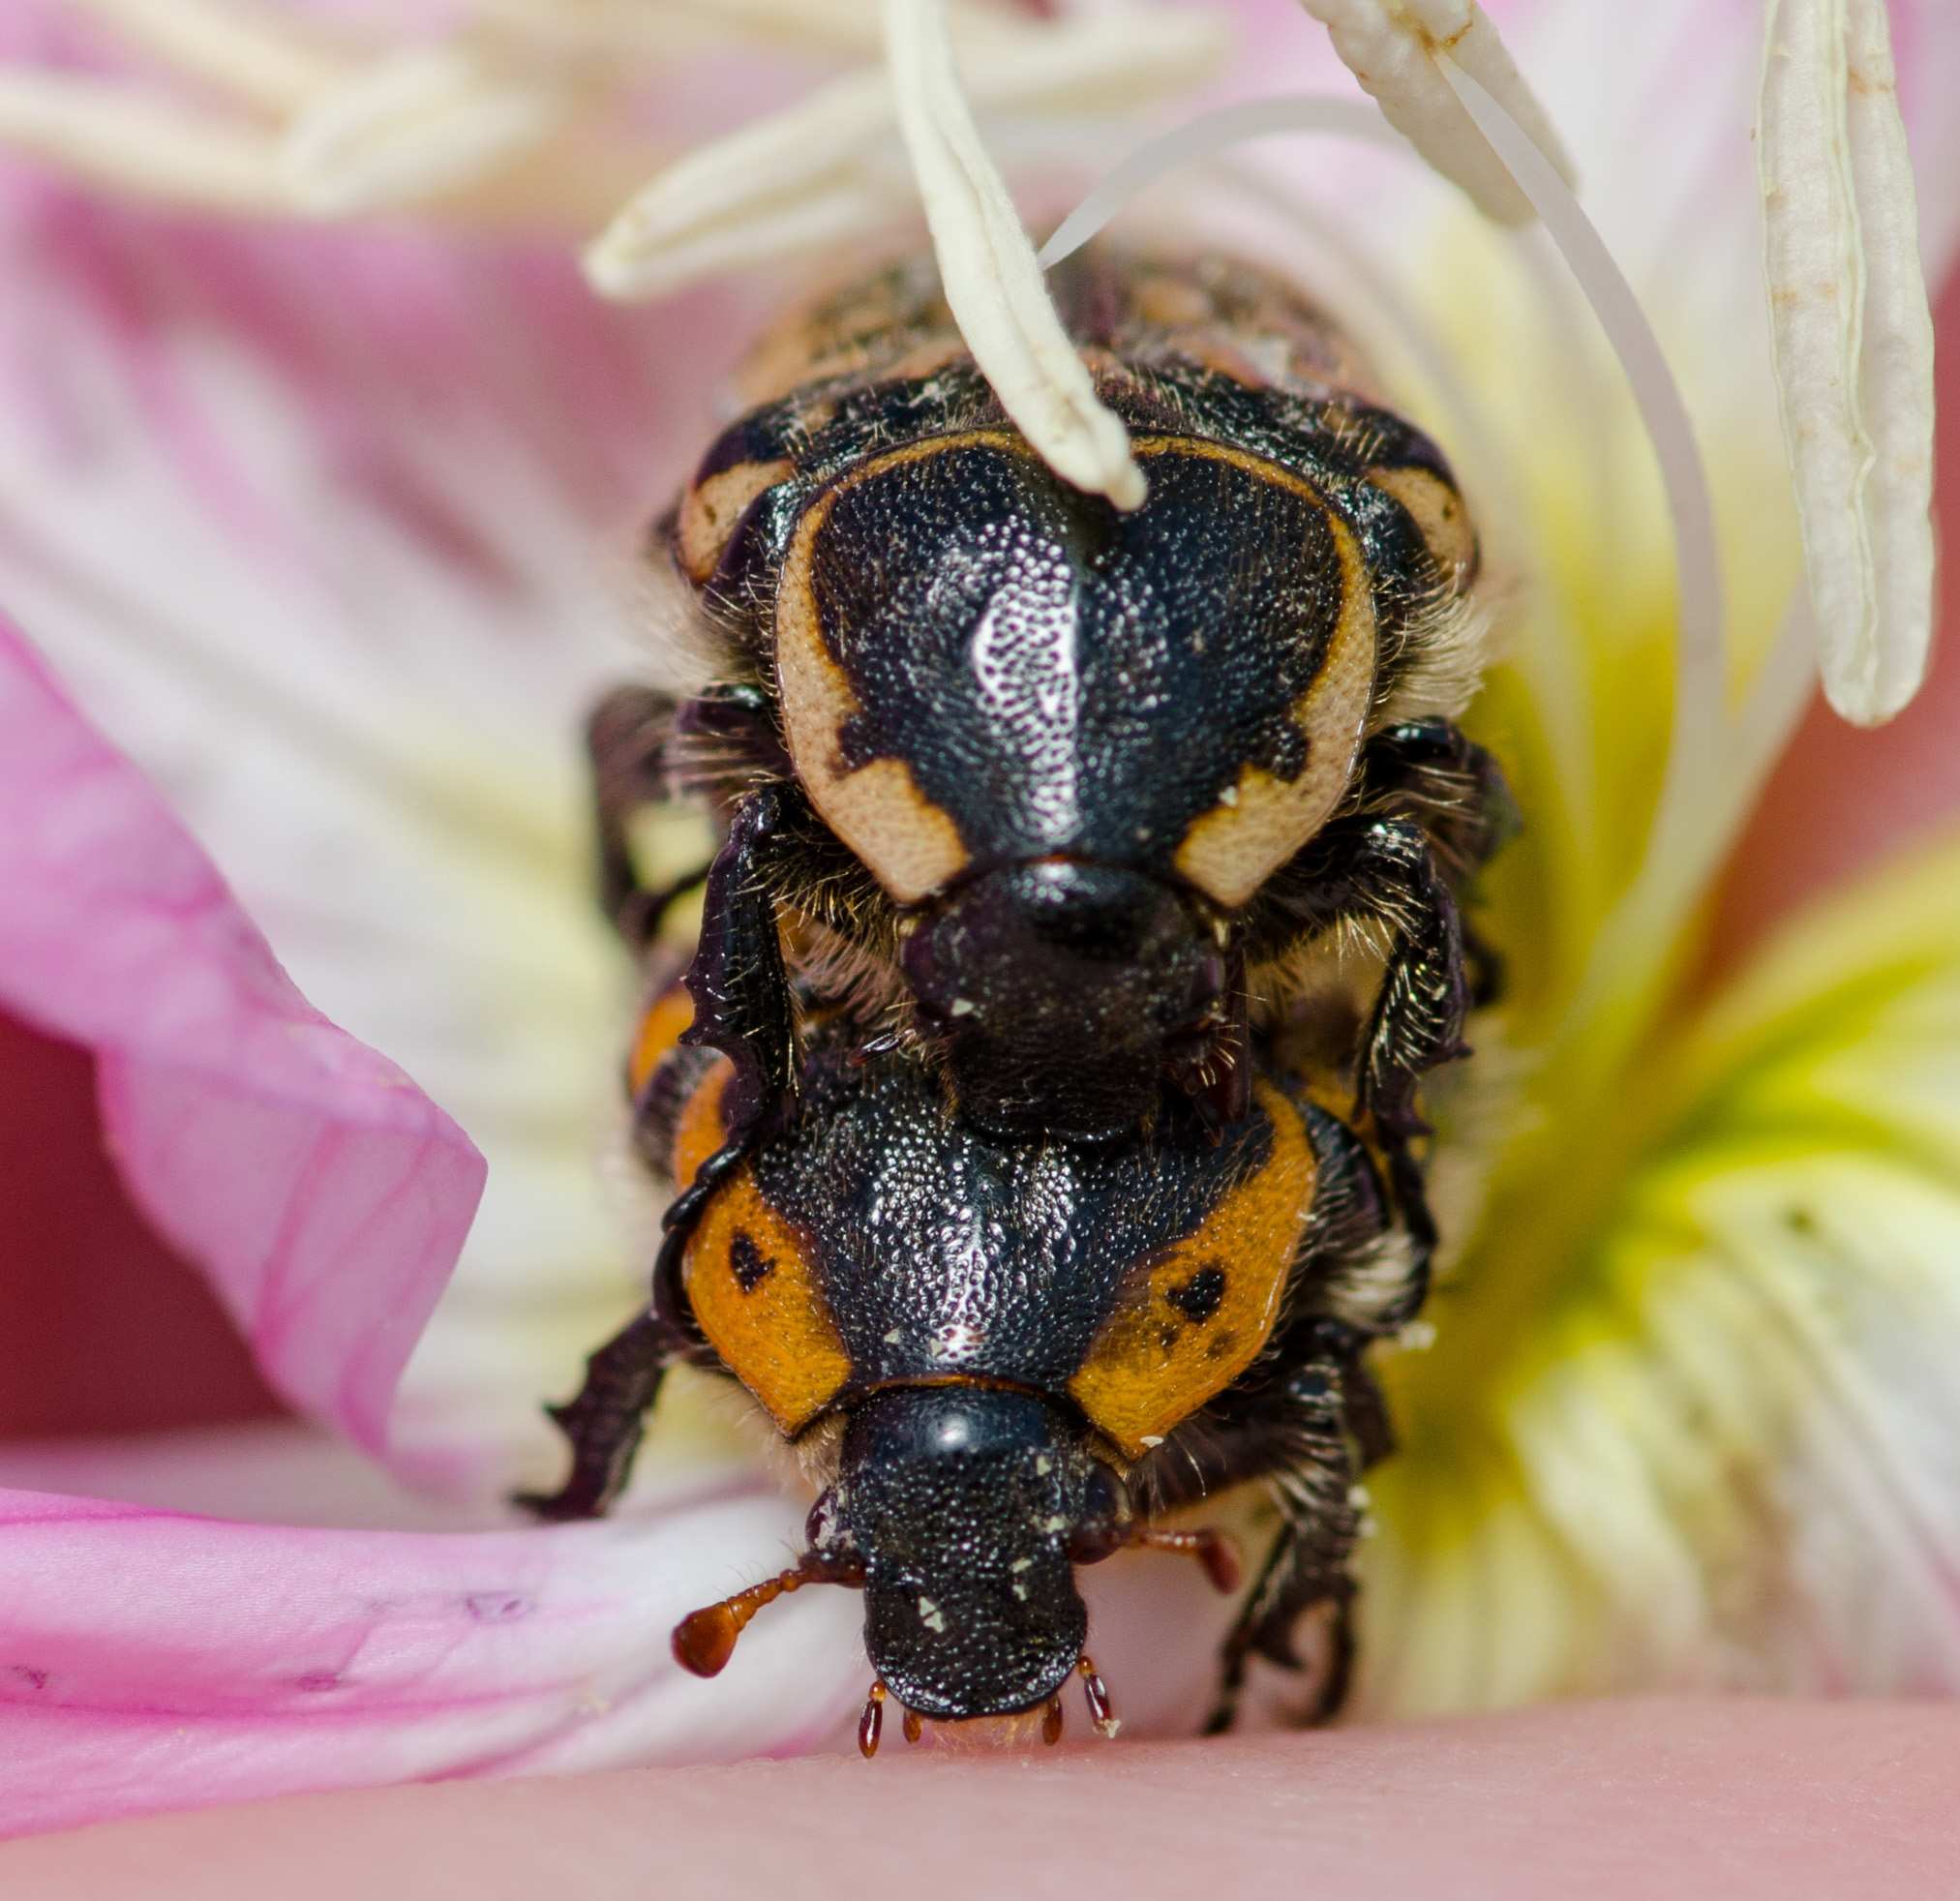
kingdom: Animalia
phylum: Arthropoda
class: Insecta
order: Coleoptera
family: Scarabaeidae
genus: Euphoria
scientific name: Euphoria kernii
